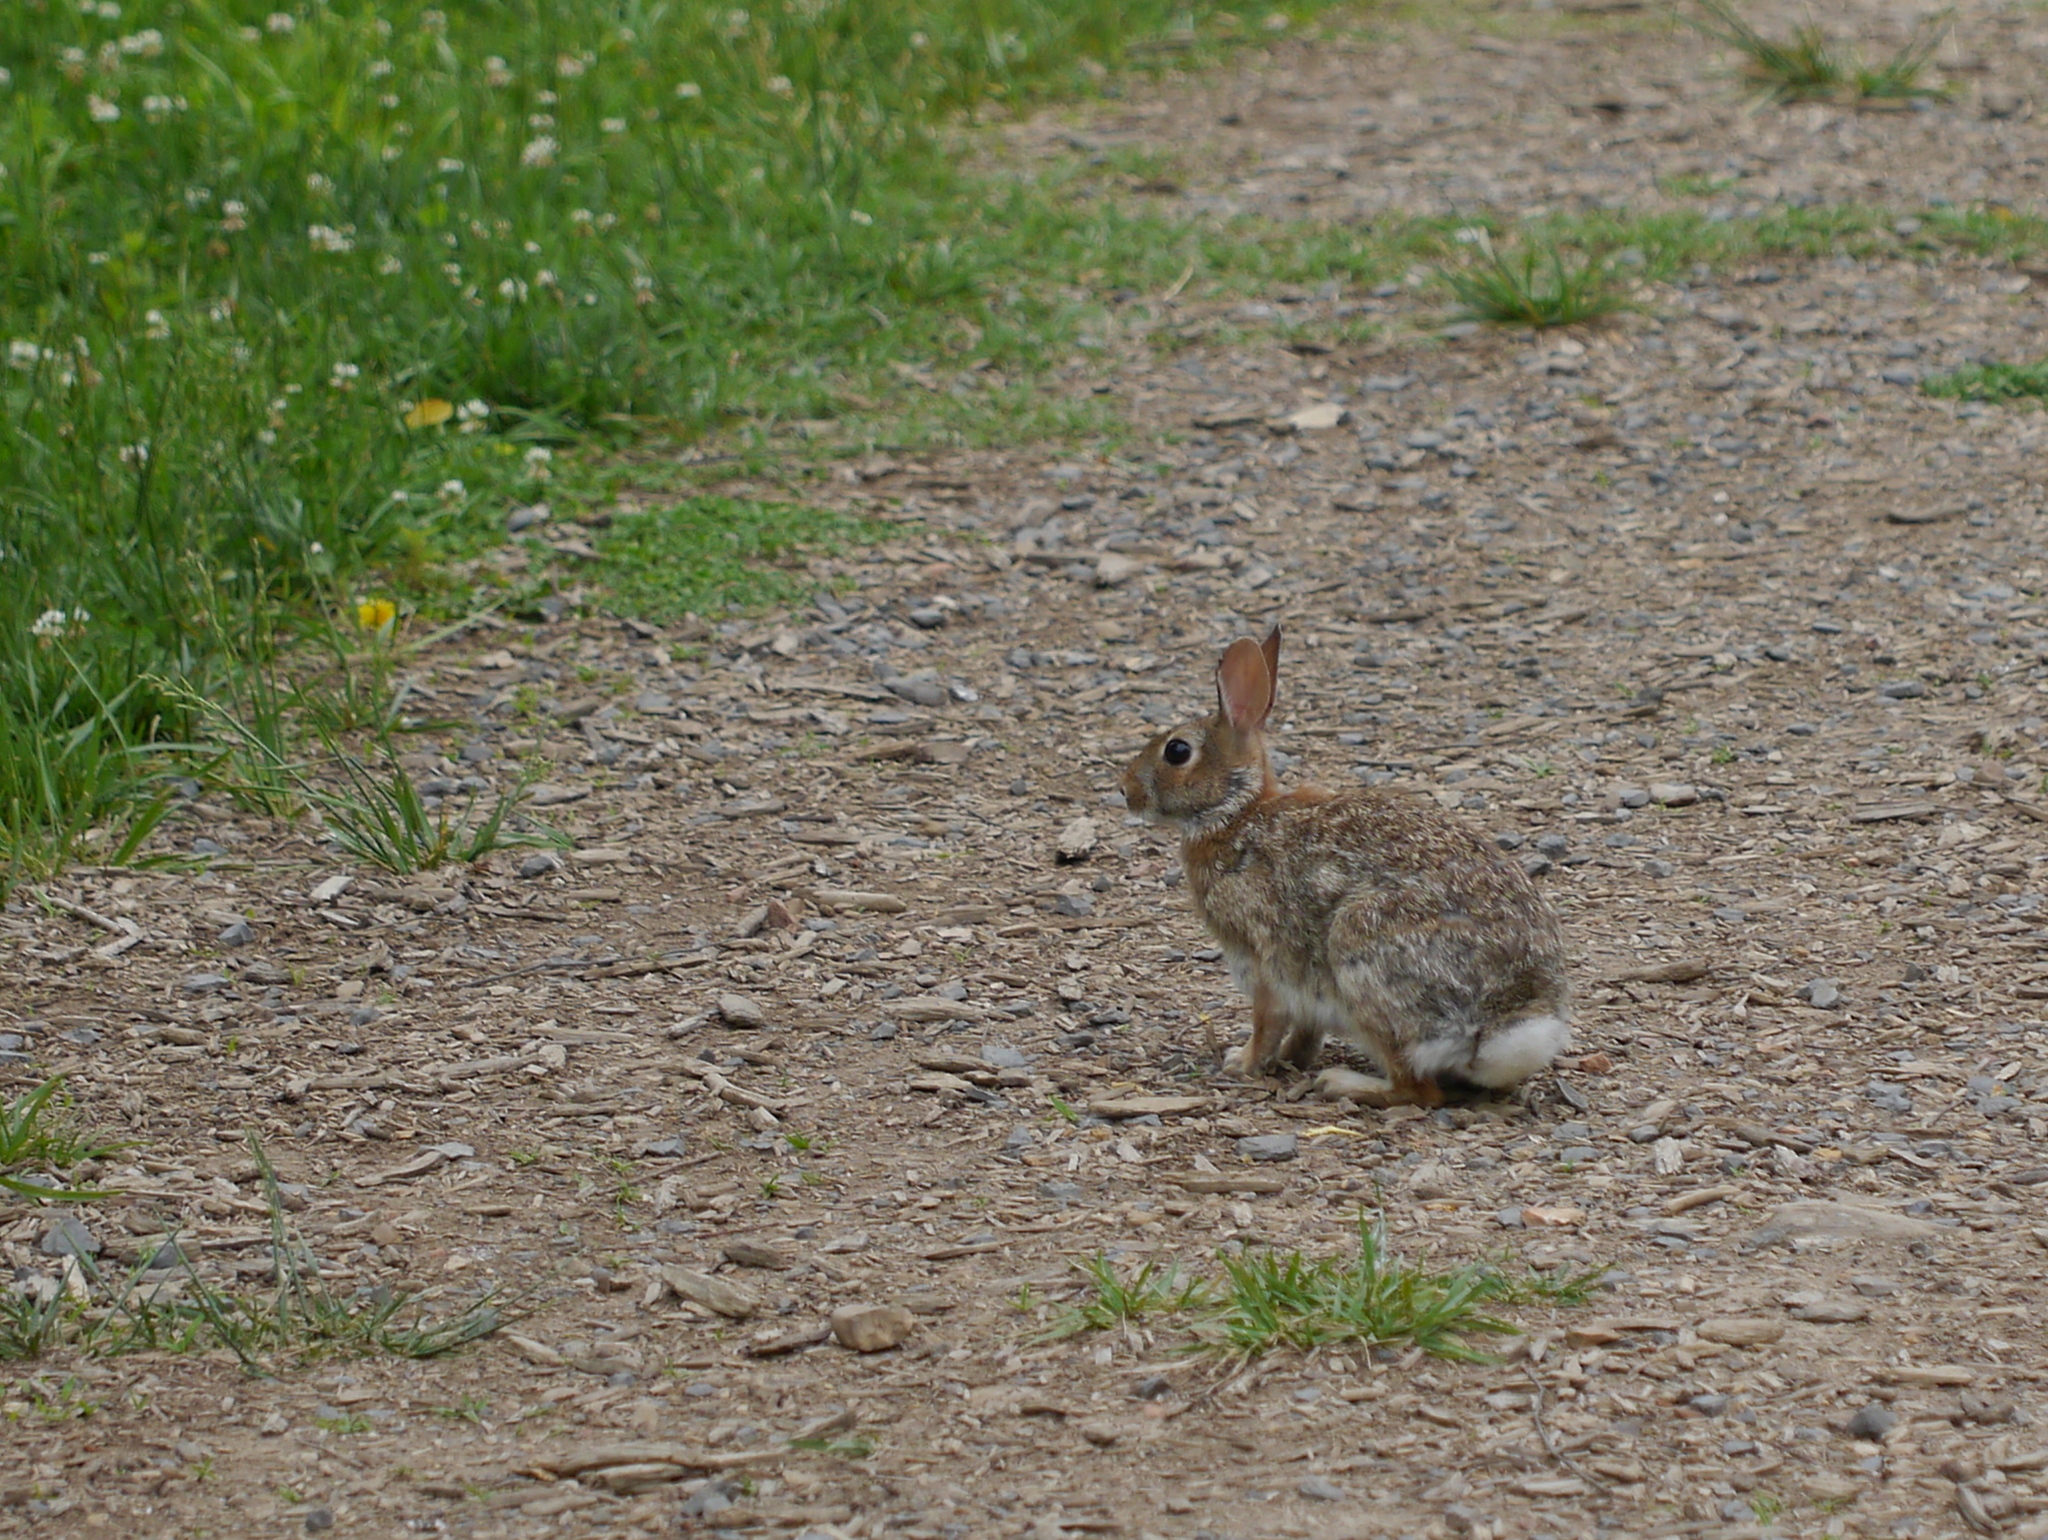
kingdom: Animalia
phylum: Chordata
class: Mammalia
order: Lagomorpha
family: Leporidae
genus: Sylvilagus
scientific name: Sylvilagus floridanus
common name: Eastern cottontail
